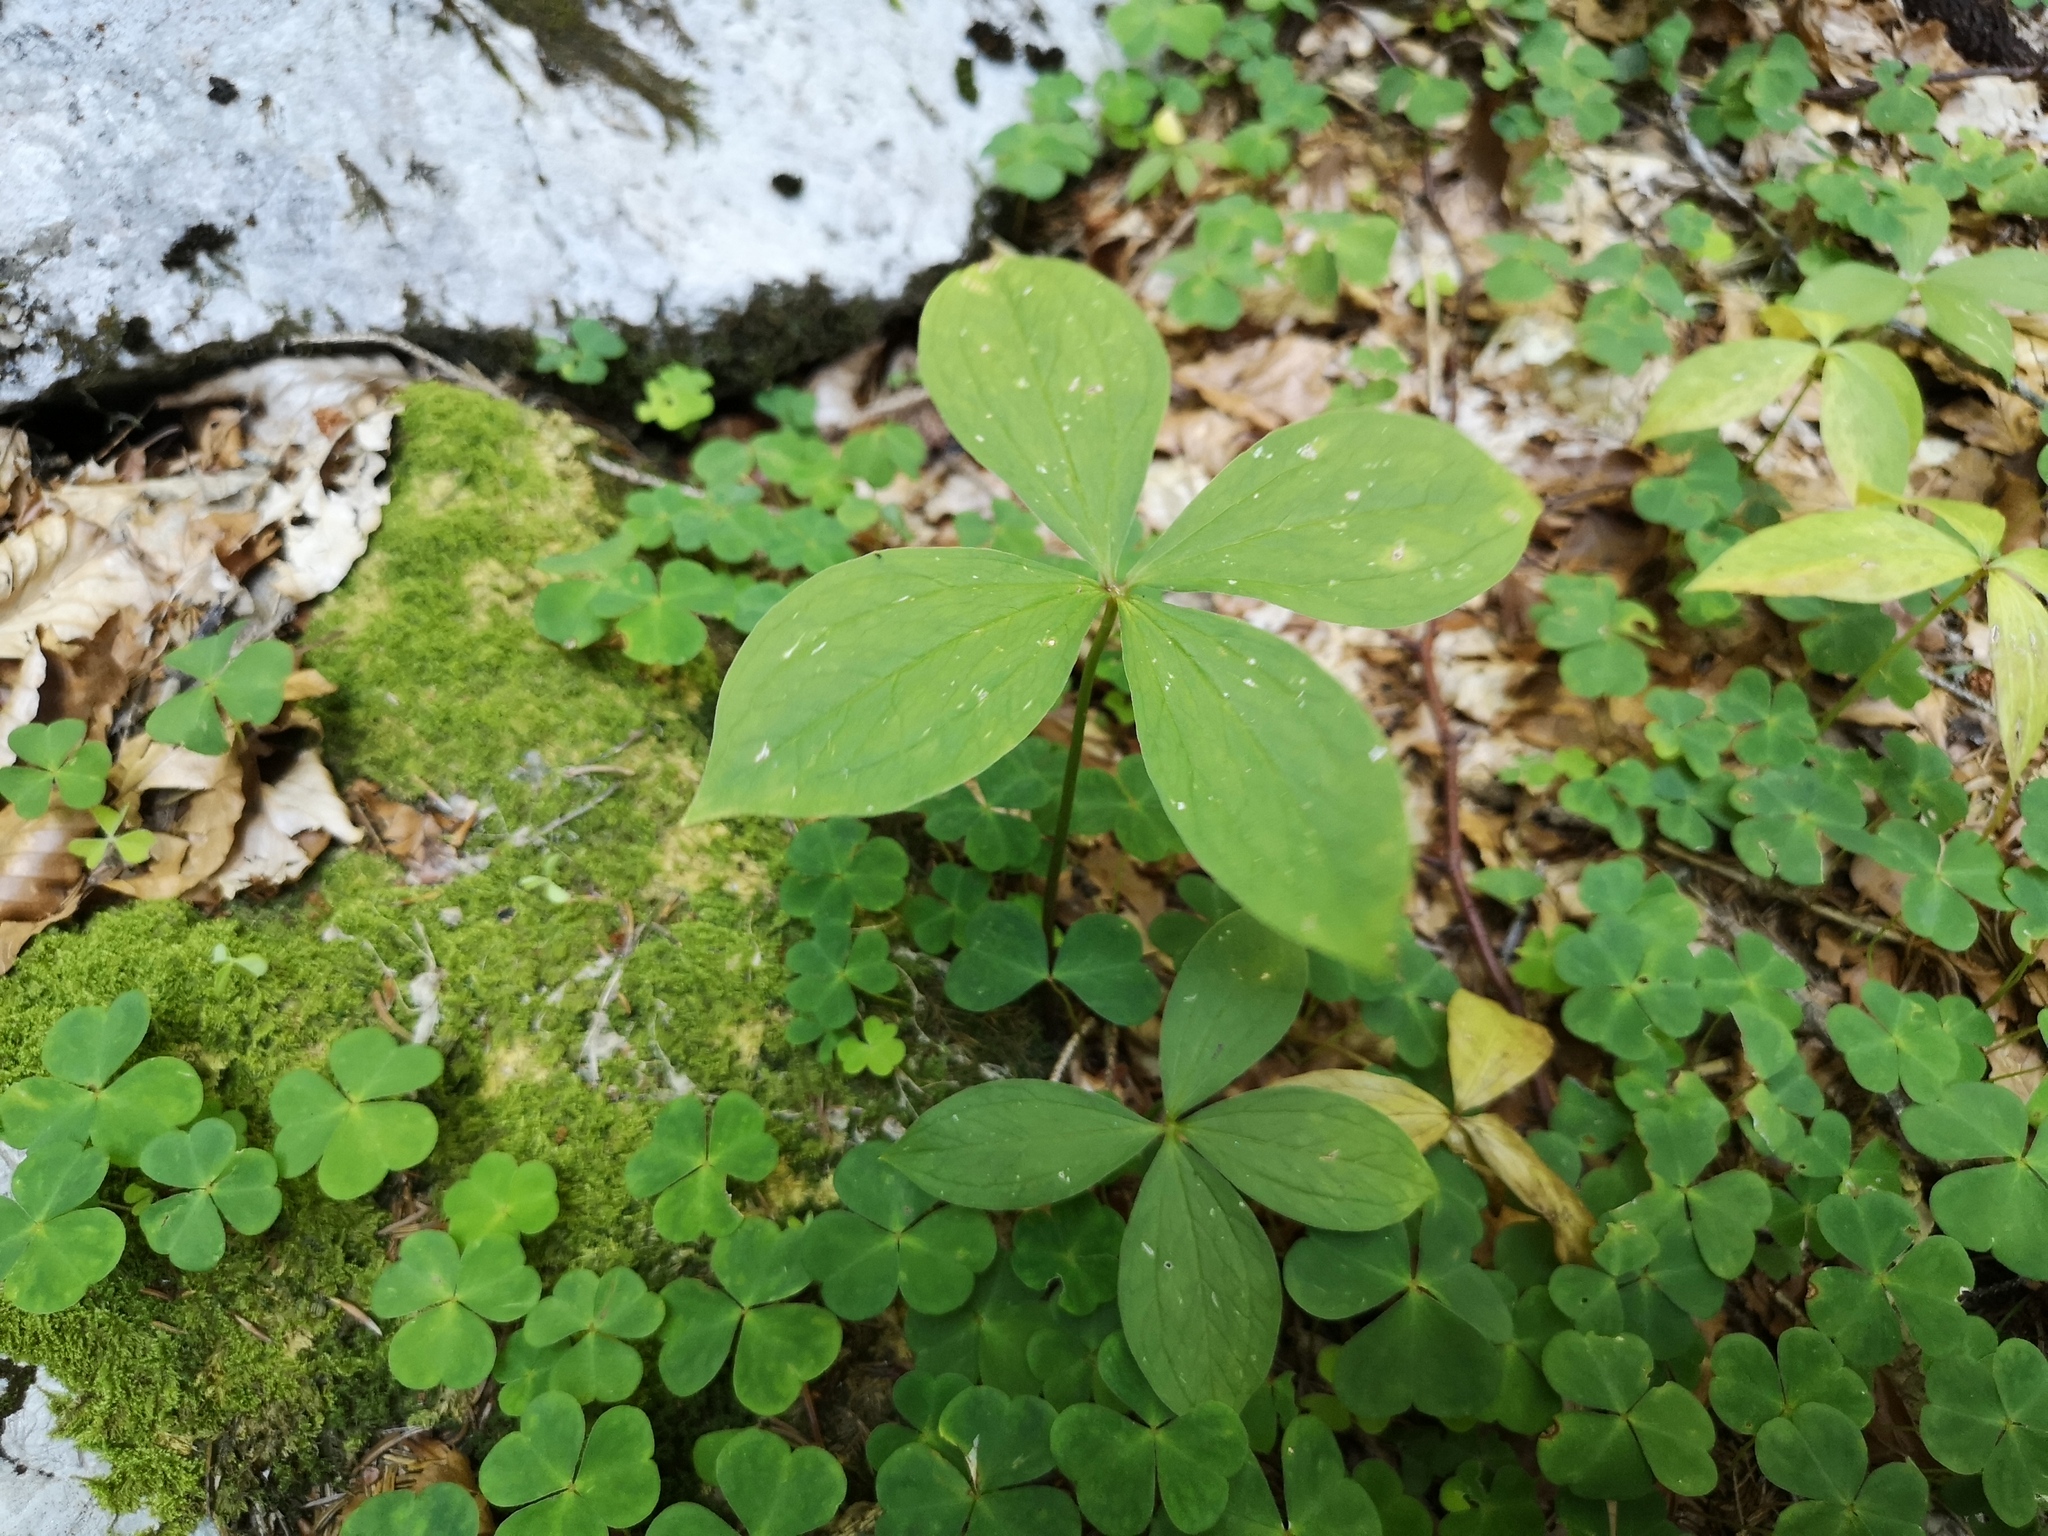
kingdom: Plantae
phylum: Tracheophyta
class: Liliopsida
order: Liliales
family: Melanthiaceae
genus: Paris
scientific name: Paris quadrifolia
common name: Herb-paris
